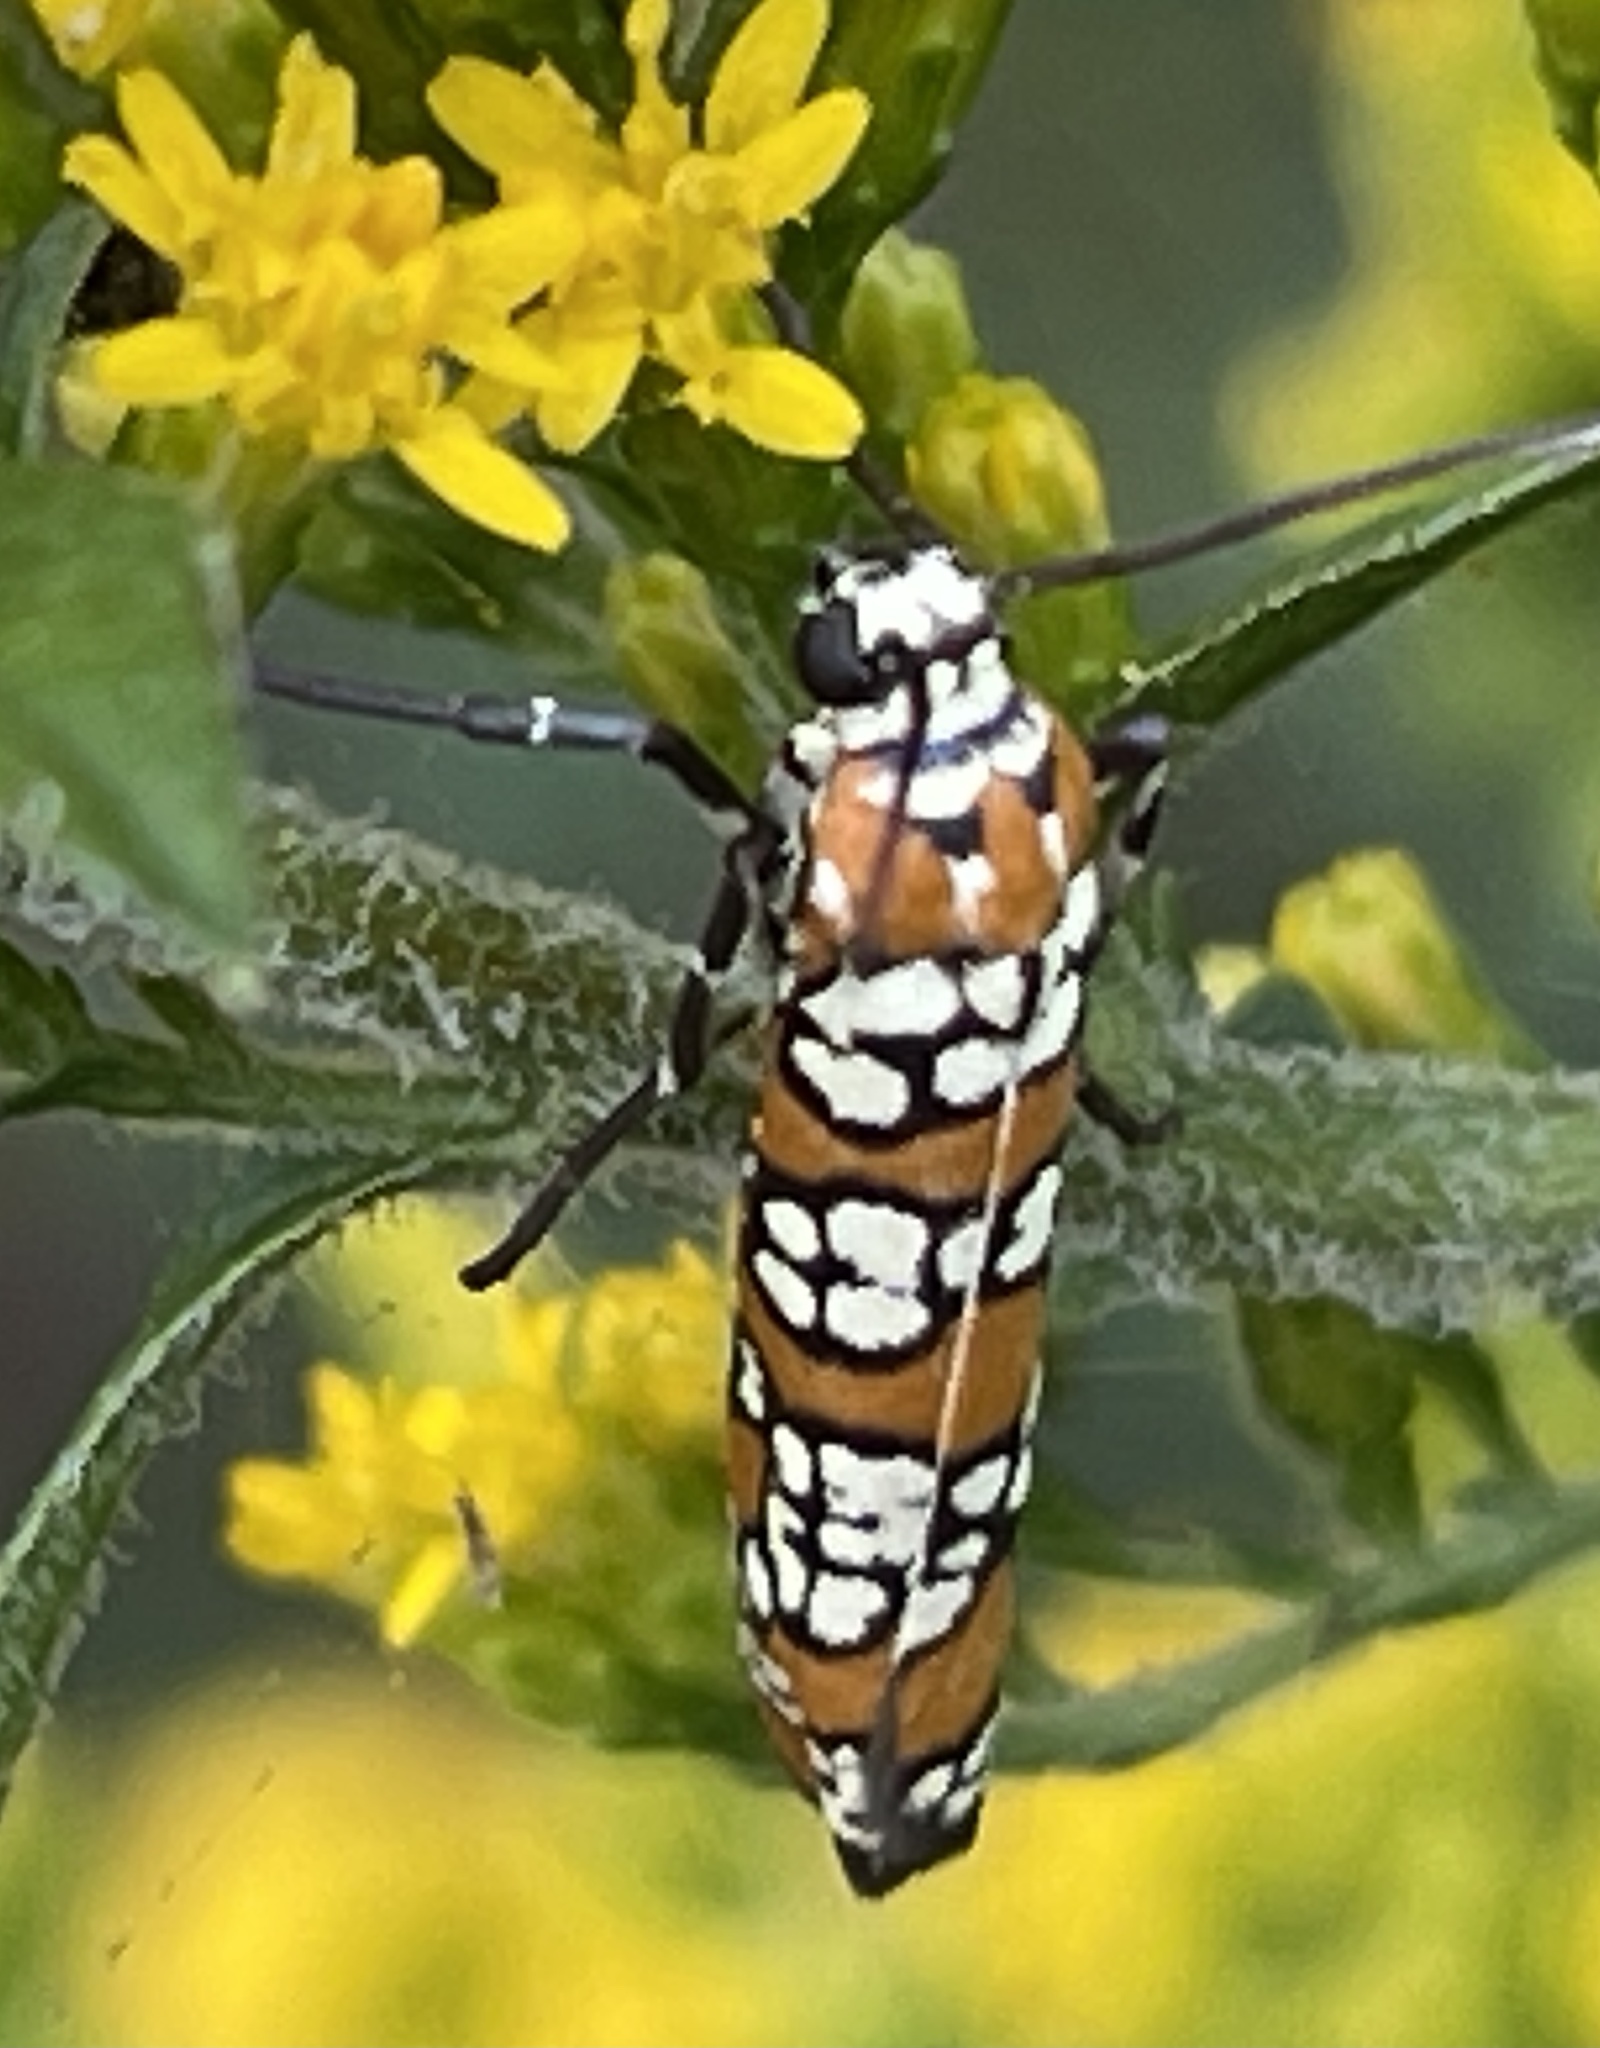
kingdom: Animalia
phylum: Arthropoda
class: Insecta
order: Lepidoptera
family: Attevidae
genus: Atteva
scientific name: Atteva punctella
